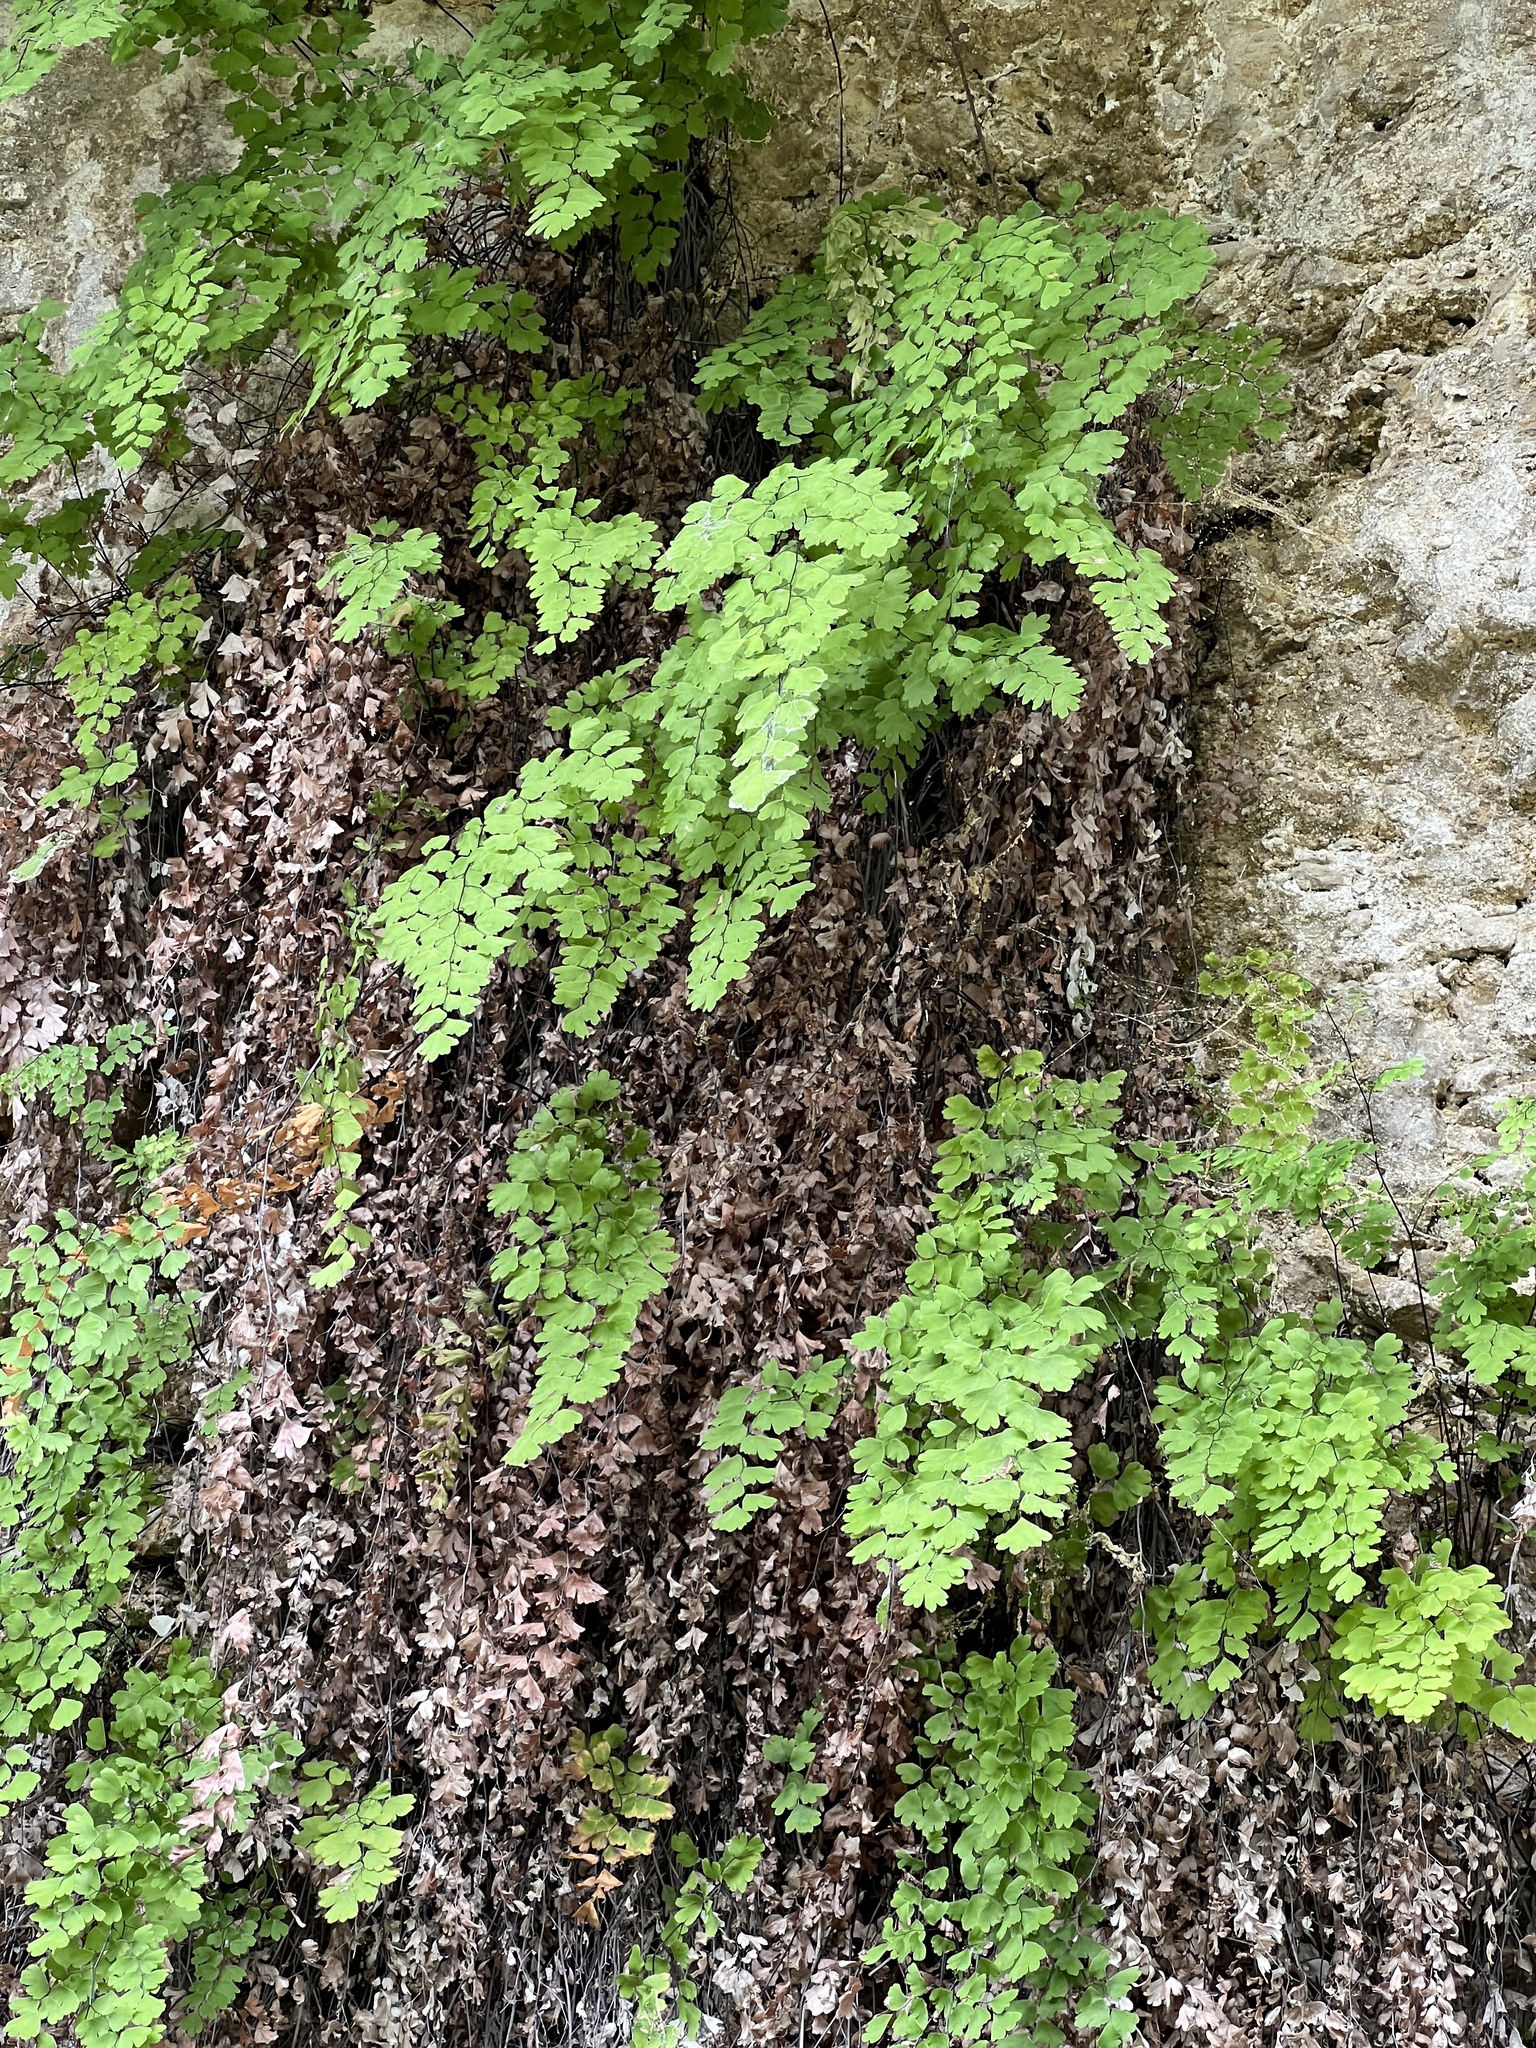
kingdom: Plantae
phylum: Tracheophyta
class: Polypodiopsida
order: Polypodiales
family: Pteridaceae
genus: Adiantum
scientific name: Adiantum capillus-veneris
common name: Maidenhair fern
